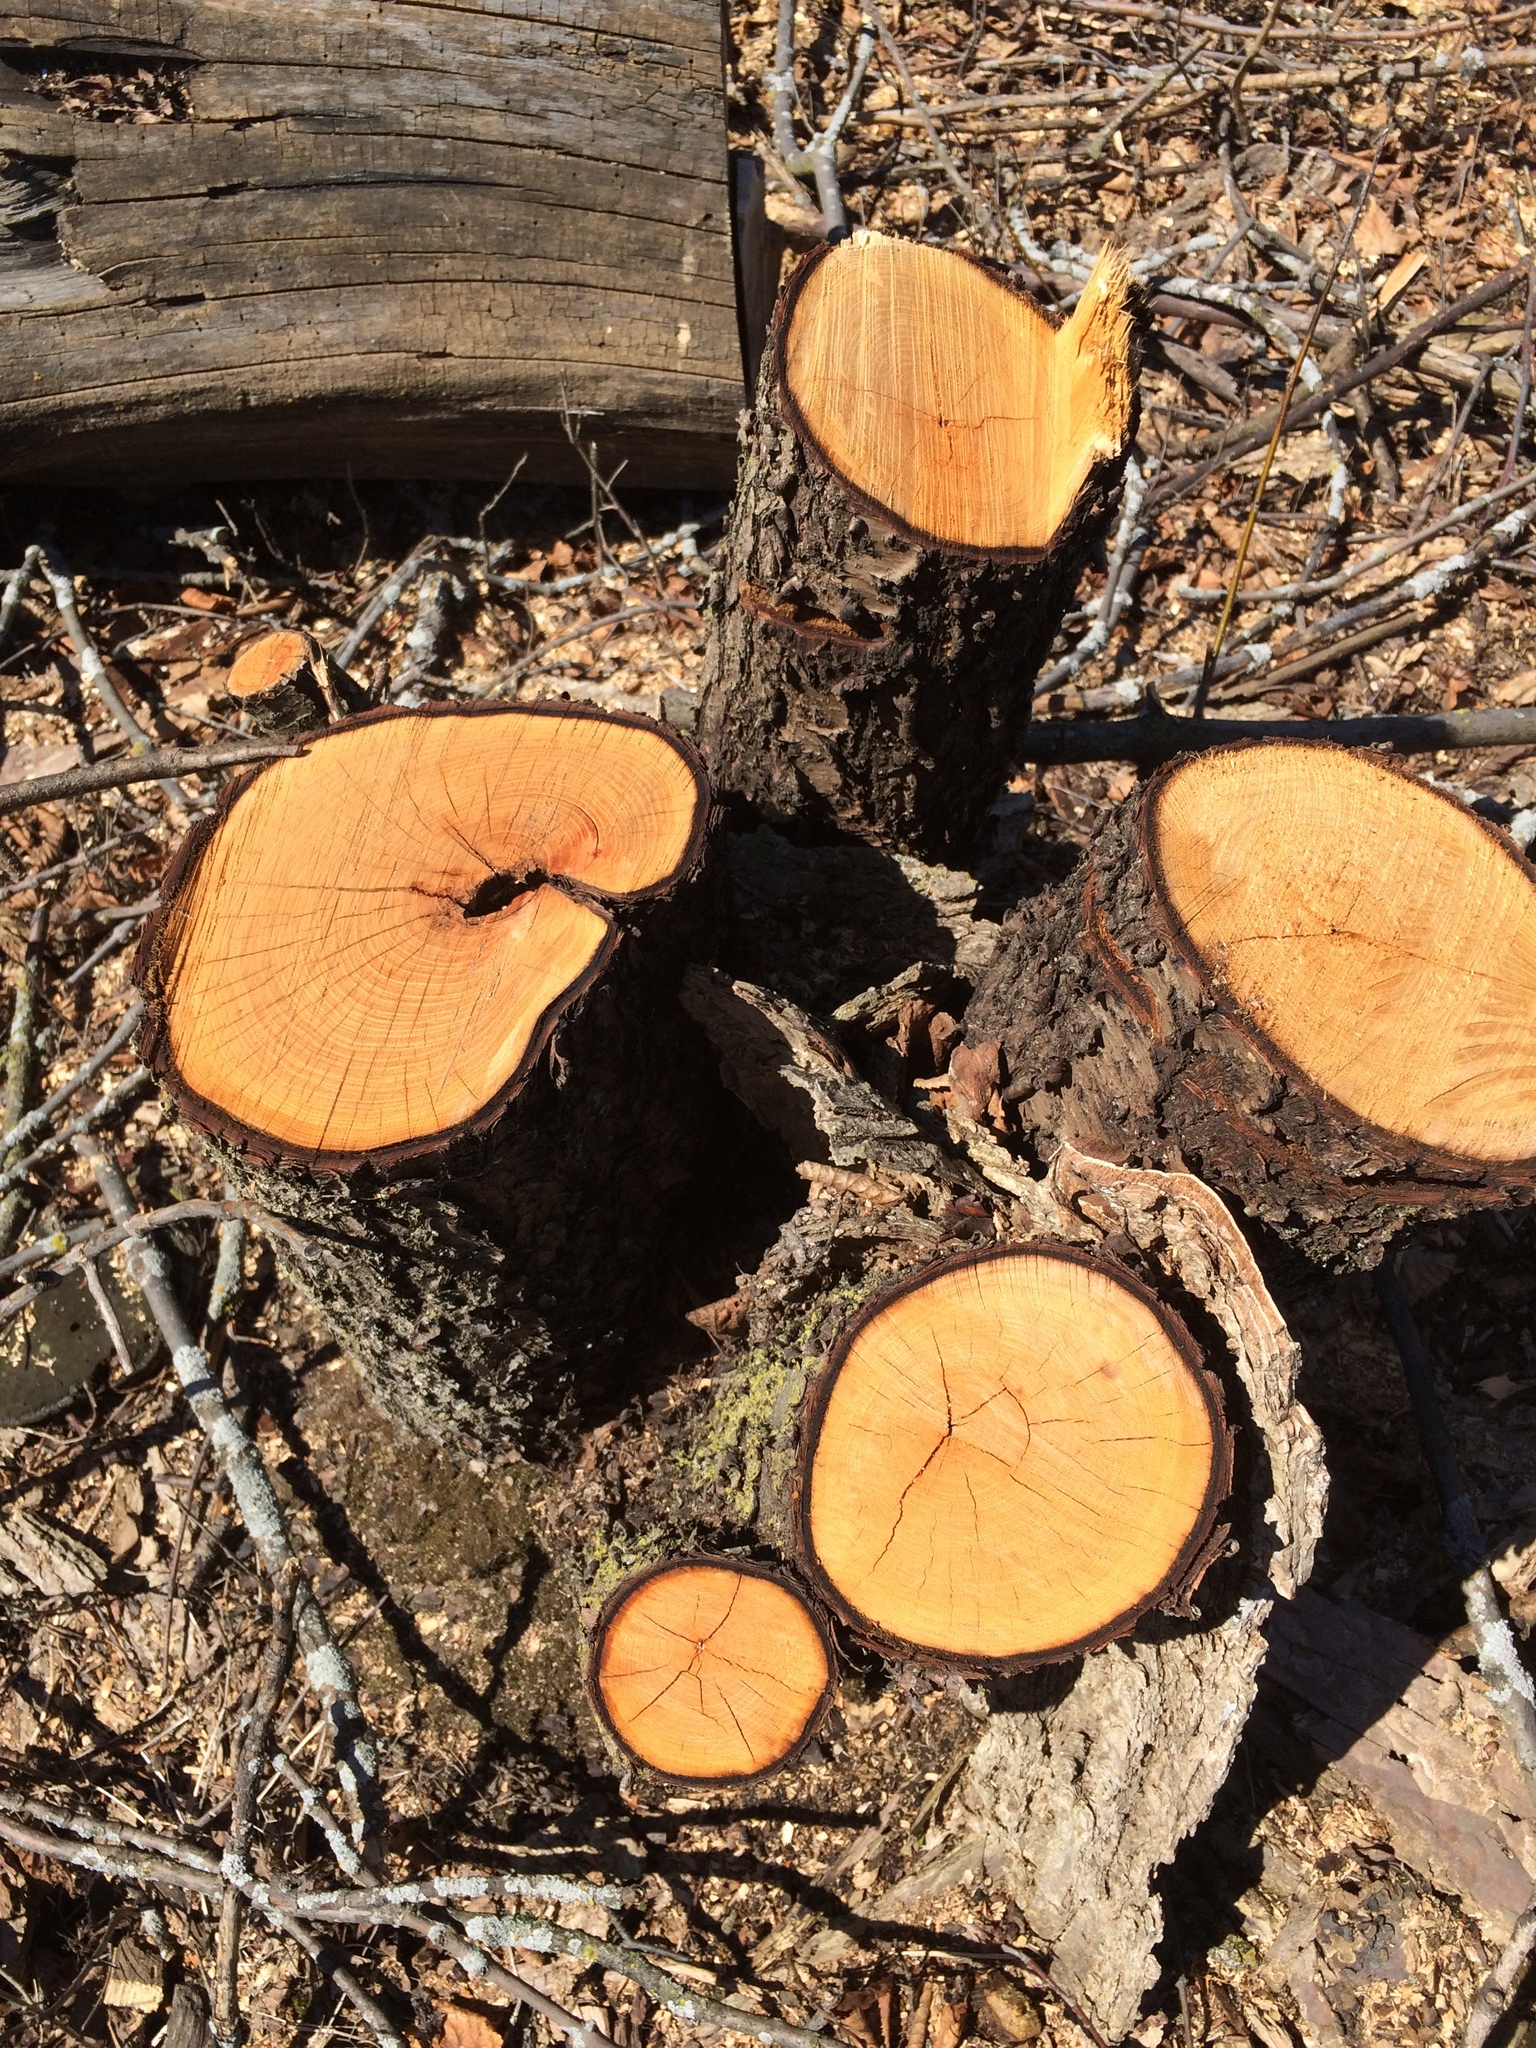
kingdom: Plantae
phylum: Tracheophyta
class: Magnoliopsida
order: Rosales
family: Rhamnaceae
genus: Rhamnus
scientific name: Rhamnus cathartica
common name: Common buckthorn
